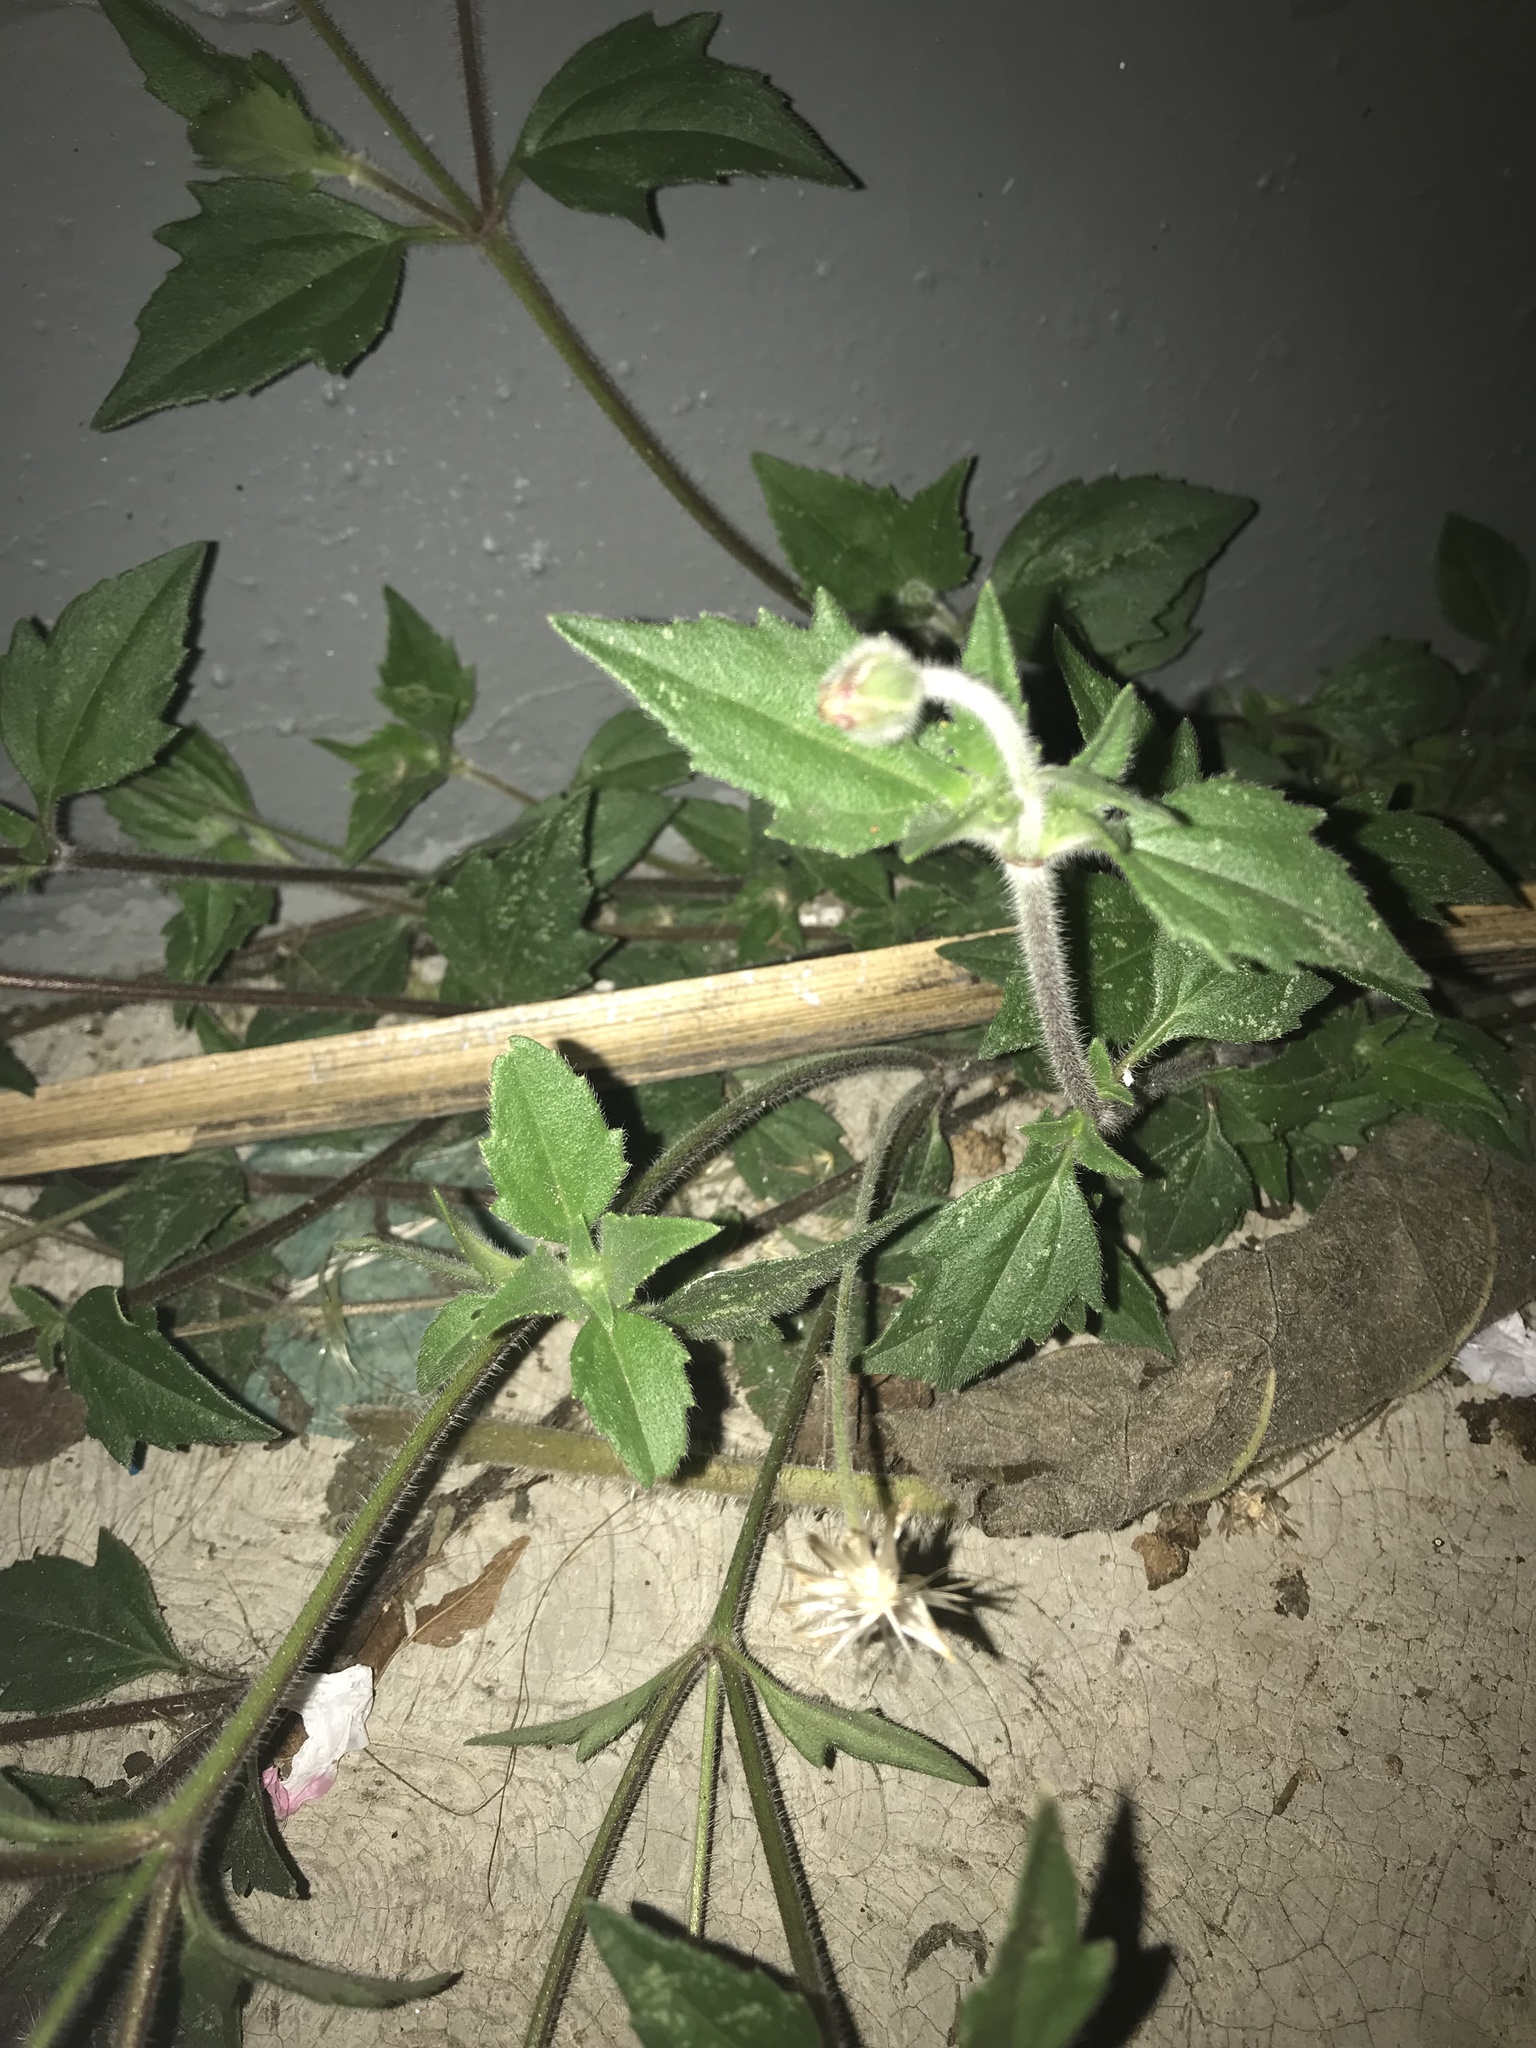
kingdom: Plantae
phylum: Tracheophyta
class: Magnoliopsida
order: Asterales
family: Asteraceae
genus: Tridax
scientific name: Tridax procumbens
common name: Coatbuttons
